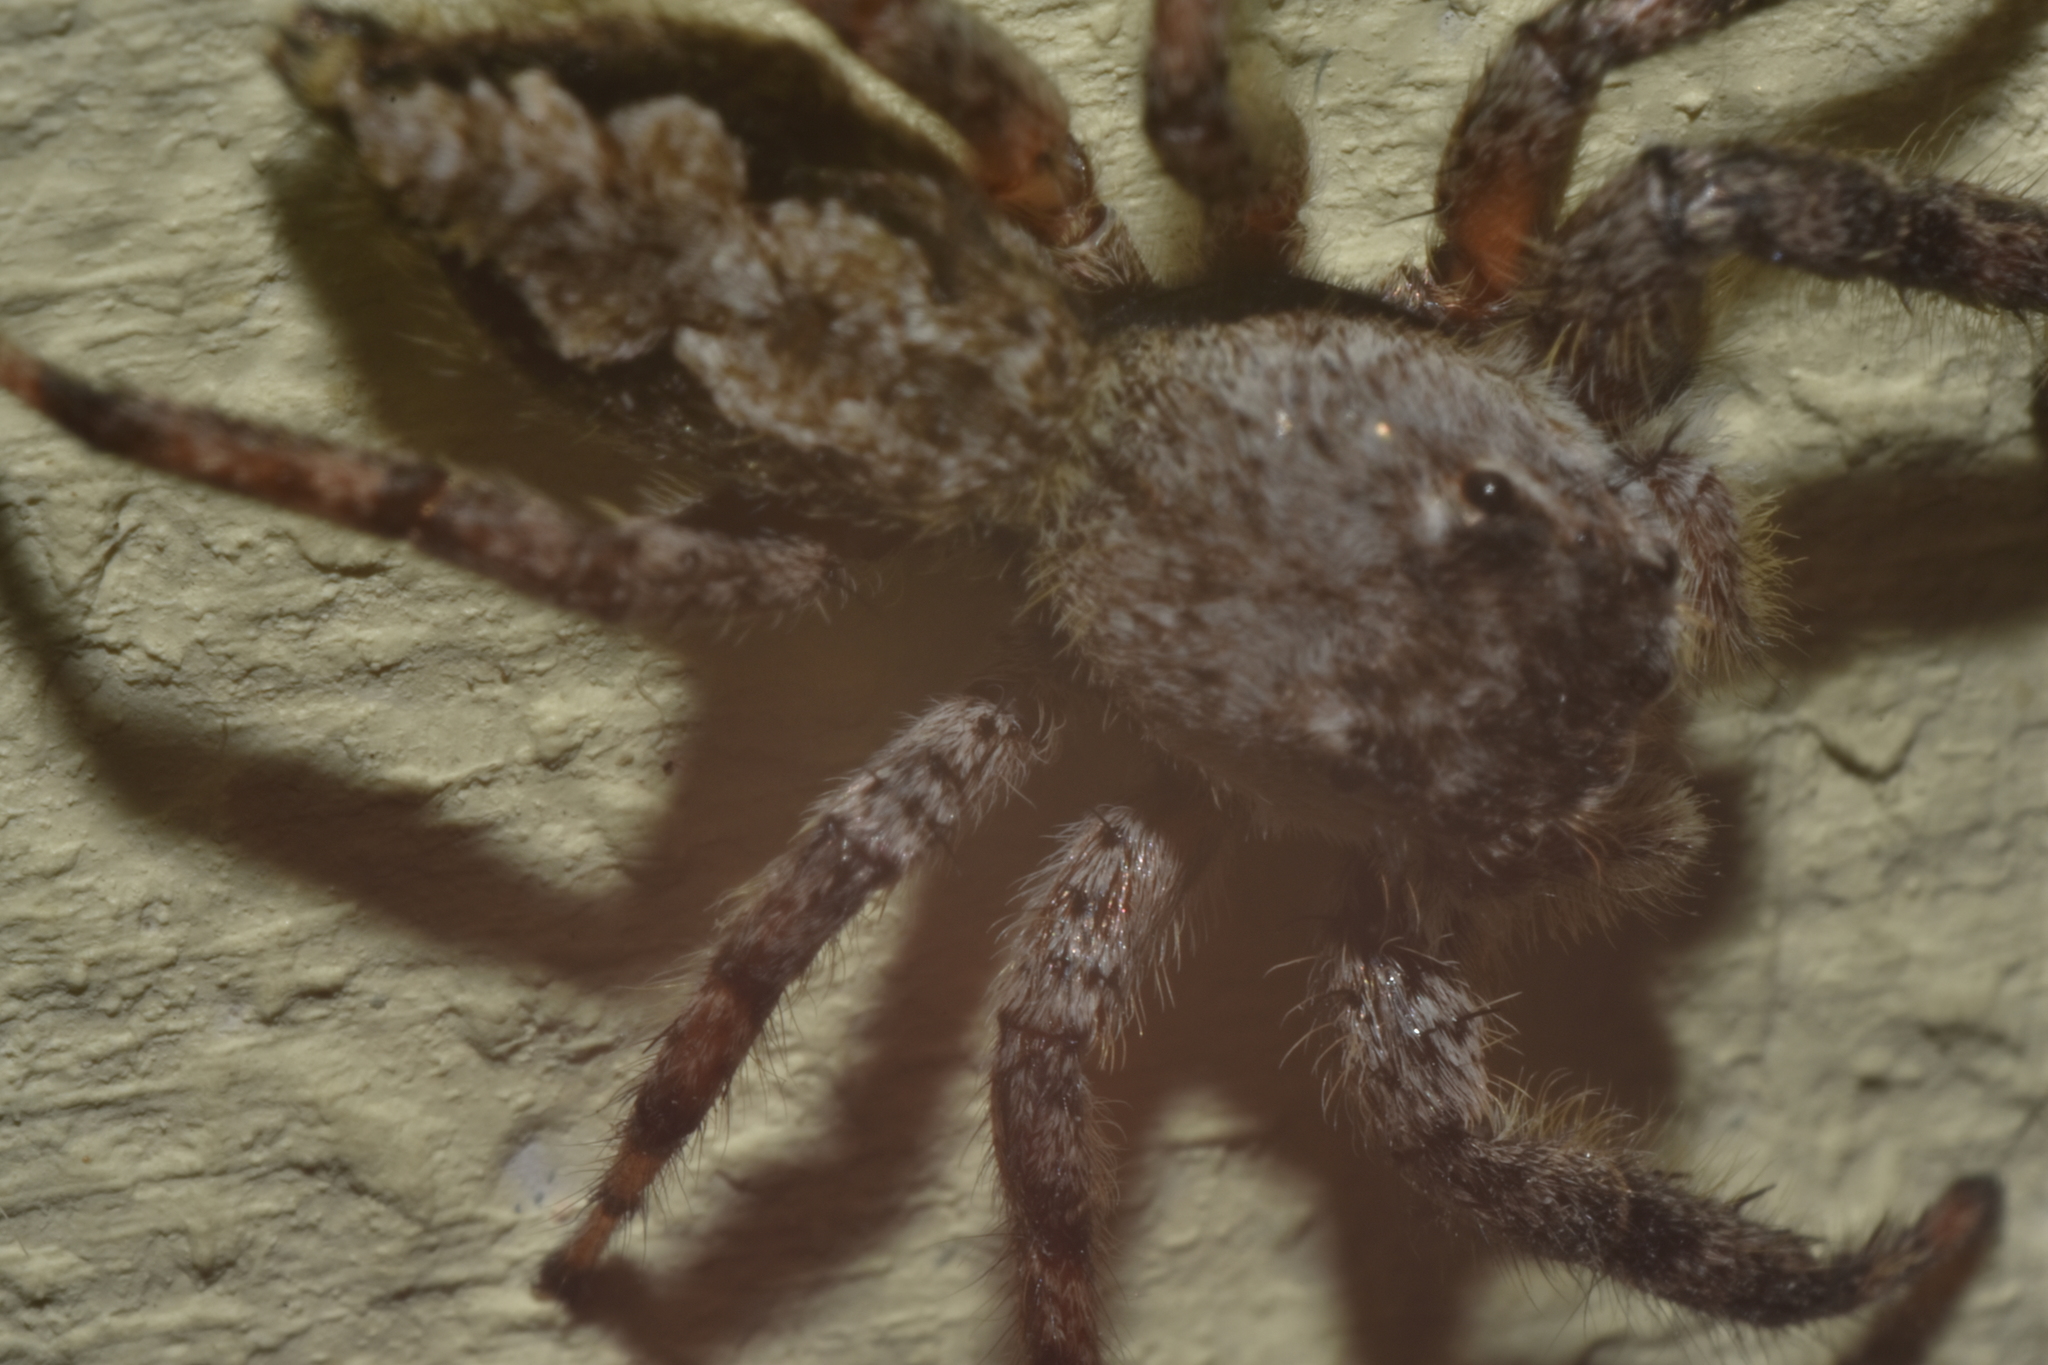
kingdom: Animalia
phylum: Arthropoda
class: Arachnida
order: Araneae
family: Salticidae
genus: Platycryptus
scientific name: Platycryptus undatus
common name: Tan jumping spider
